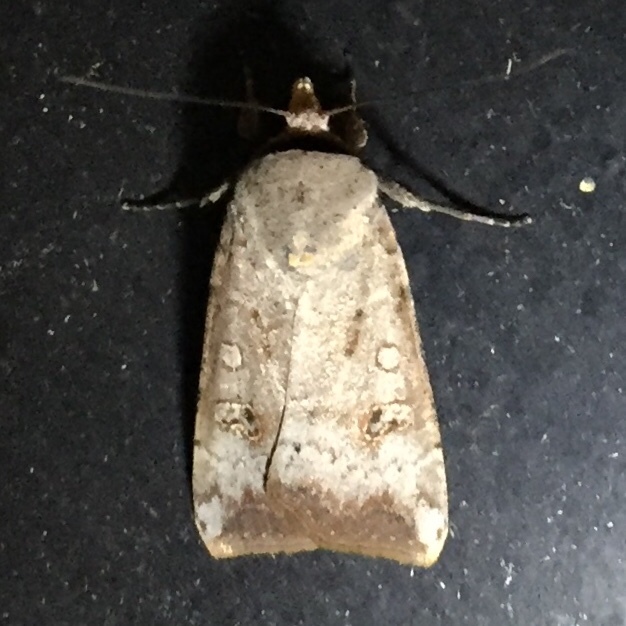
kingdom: Animalia
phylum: Arthropoda
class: Insecta
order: Lepidoptera
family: Noctuidae
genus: Anicla
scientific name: Anicla infecta
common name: Green cutworm
